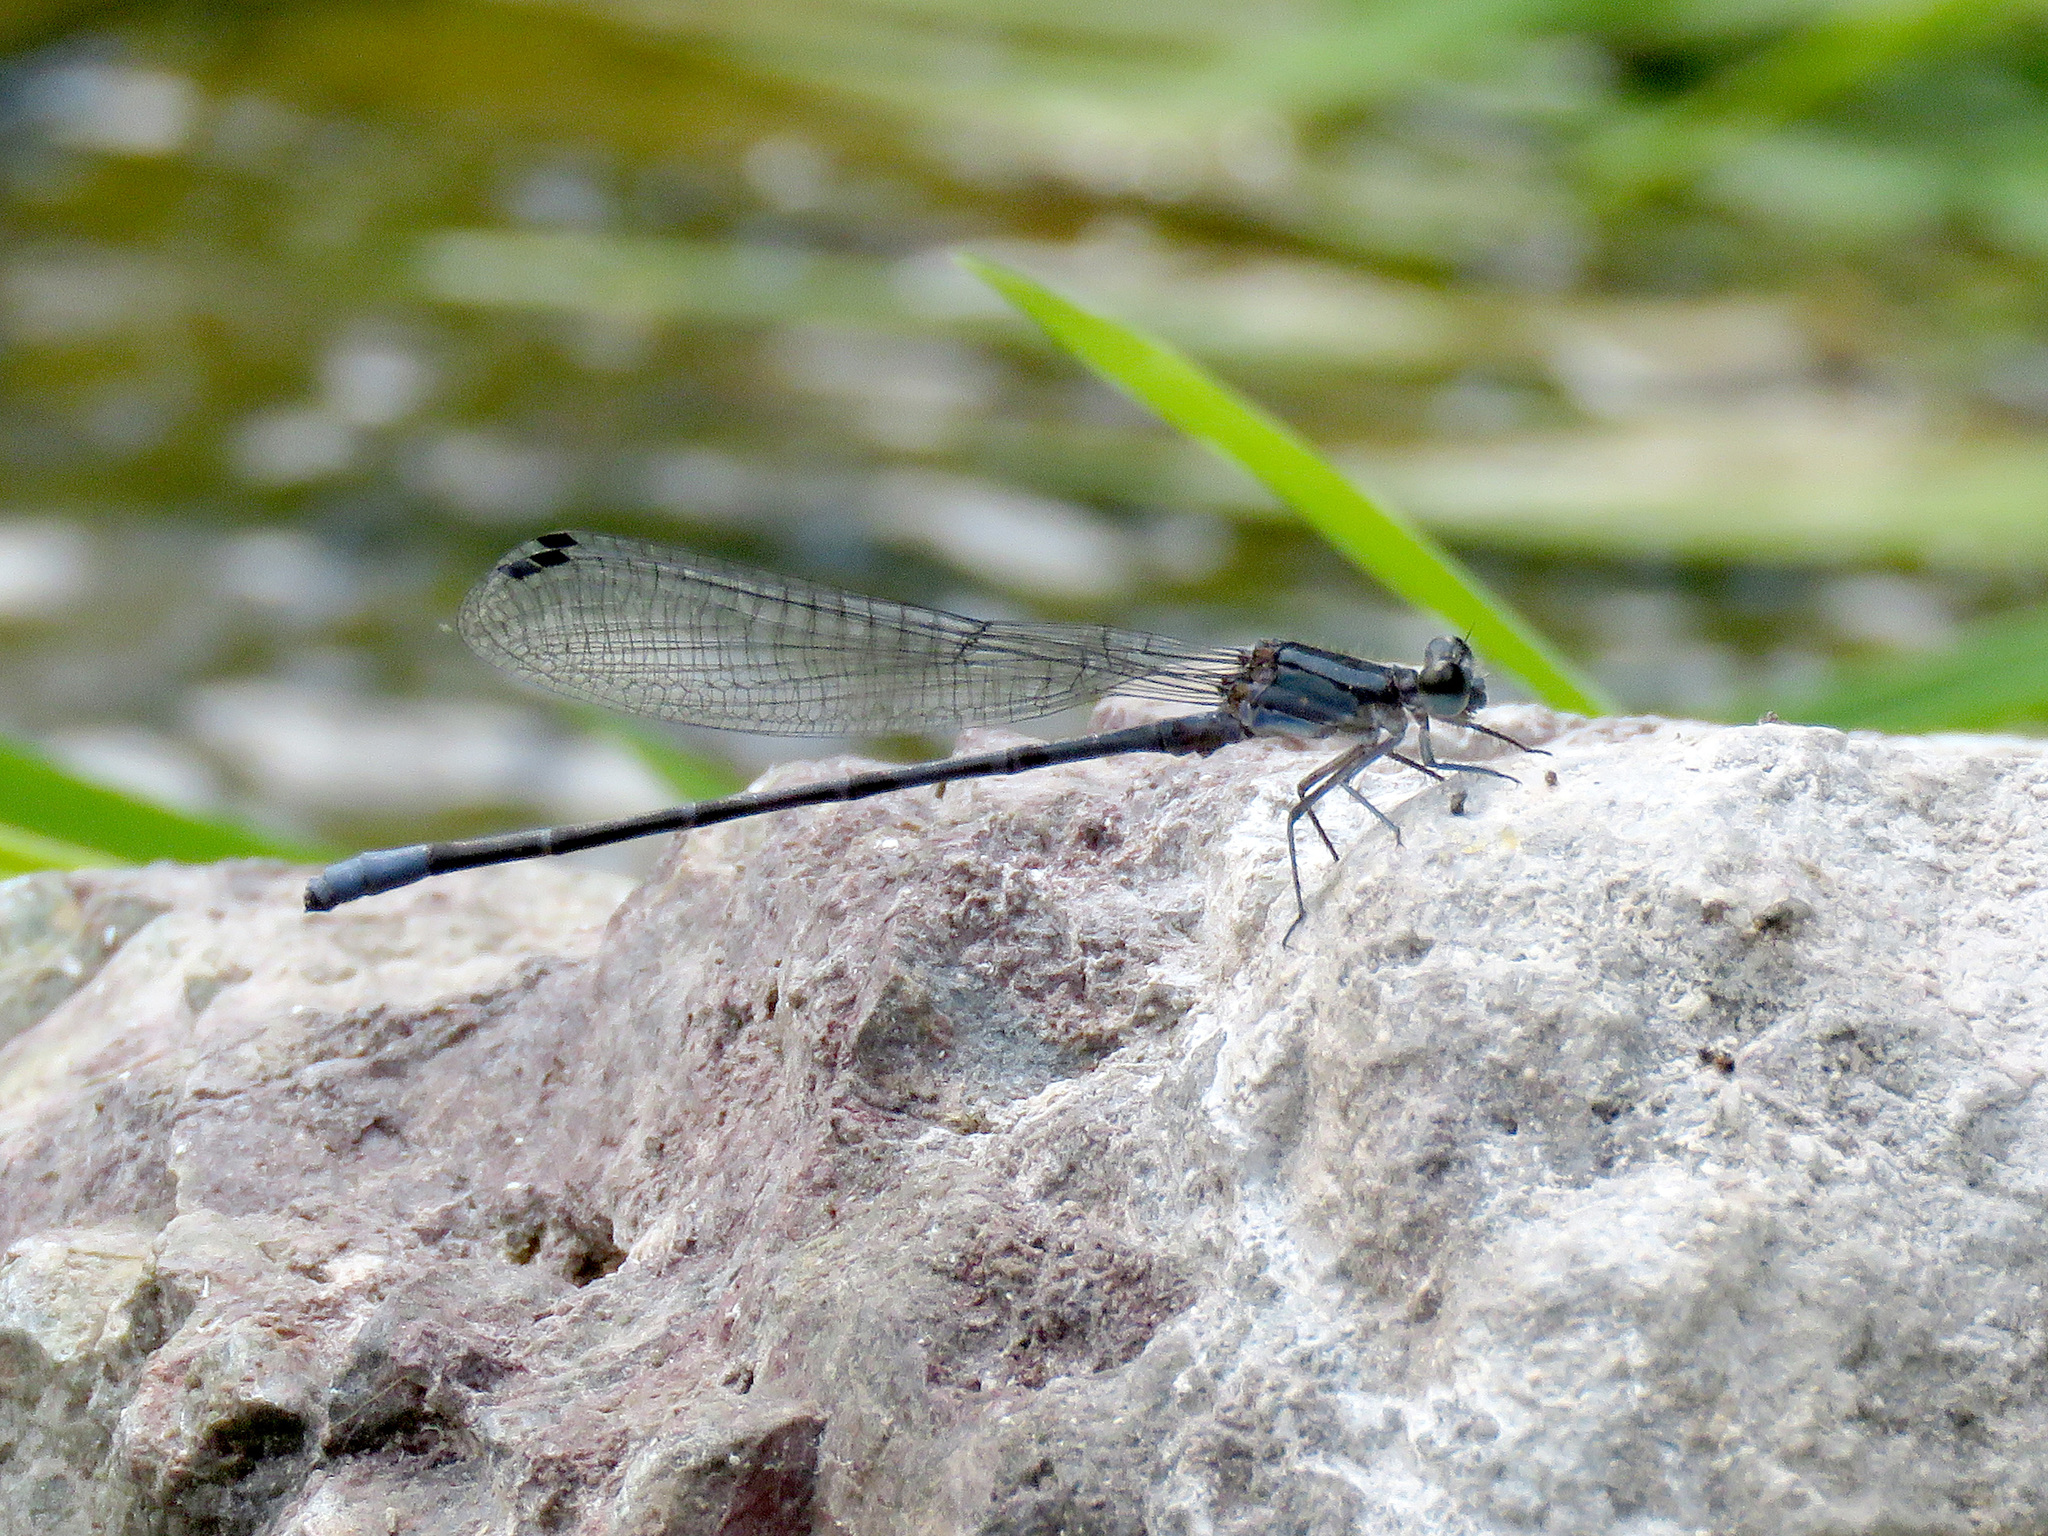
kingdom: Animalia
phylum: Arthropoda
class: Insecta
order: Odonata
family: Coenagrionidae
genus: Argia
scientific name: Argia funebris
